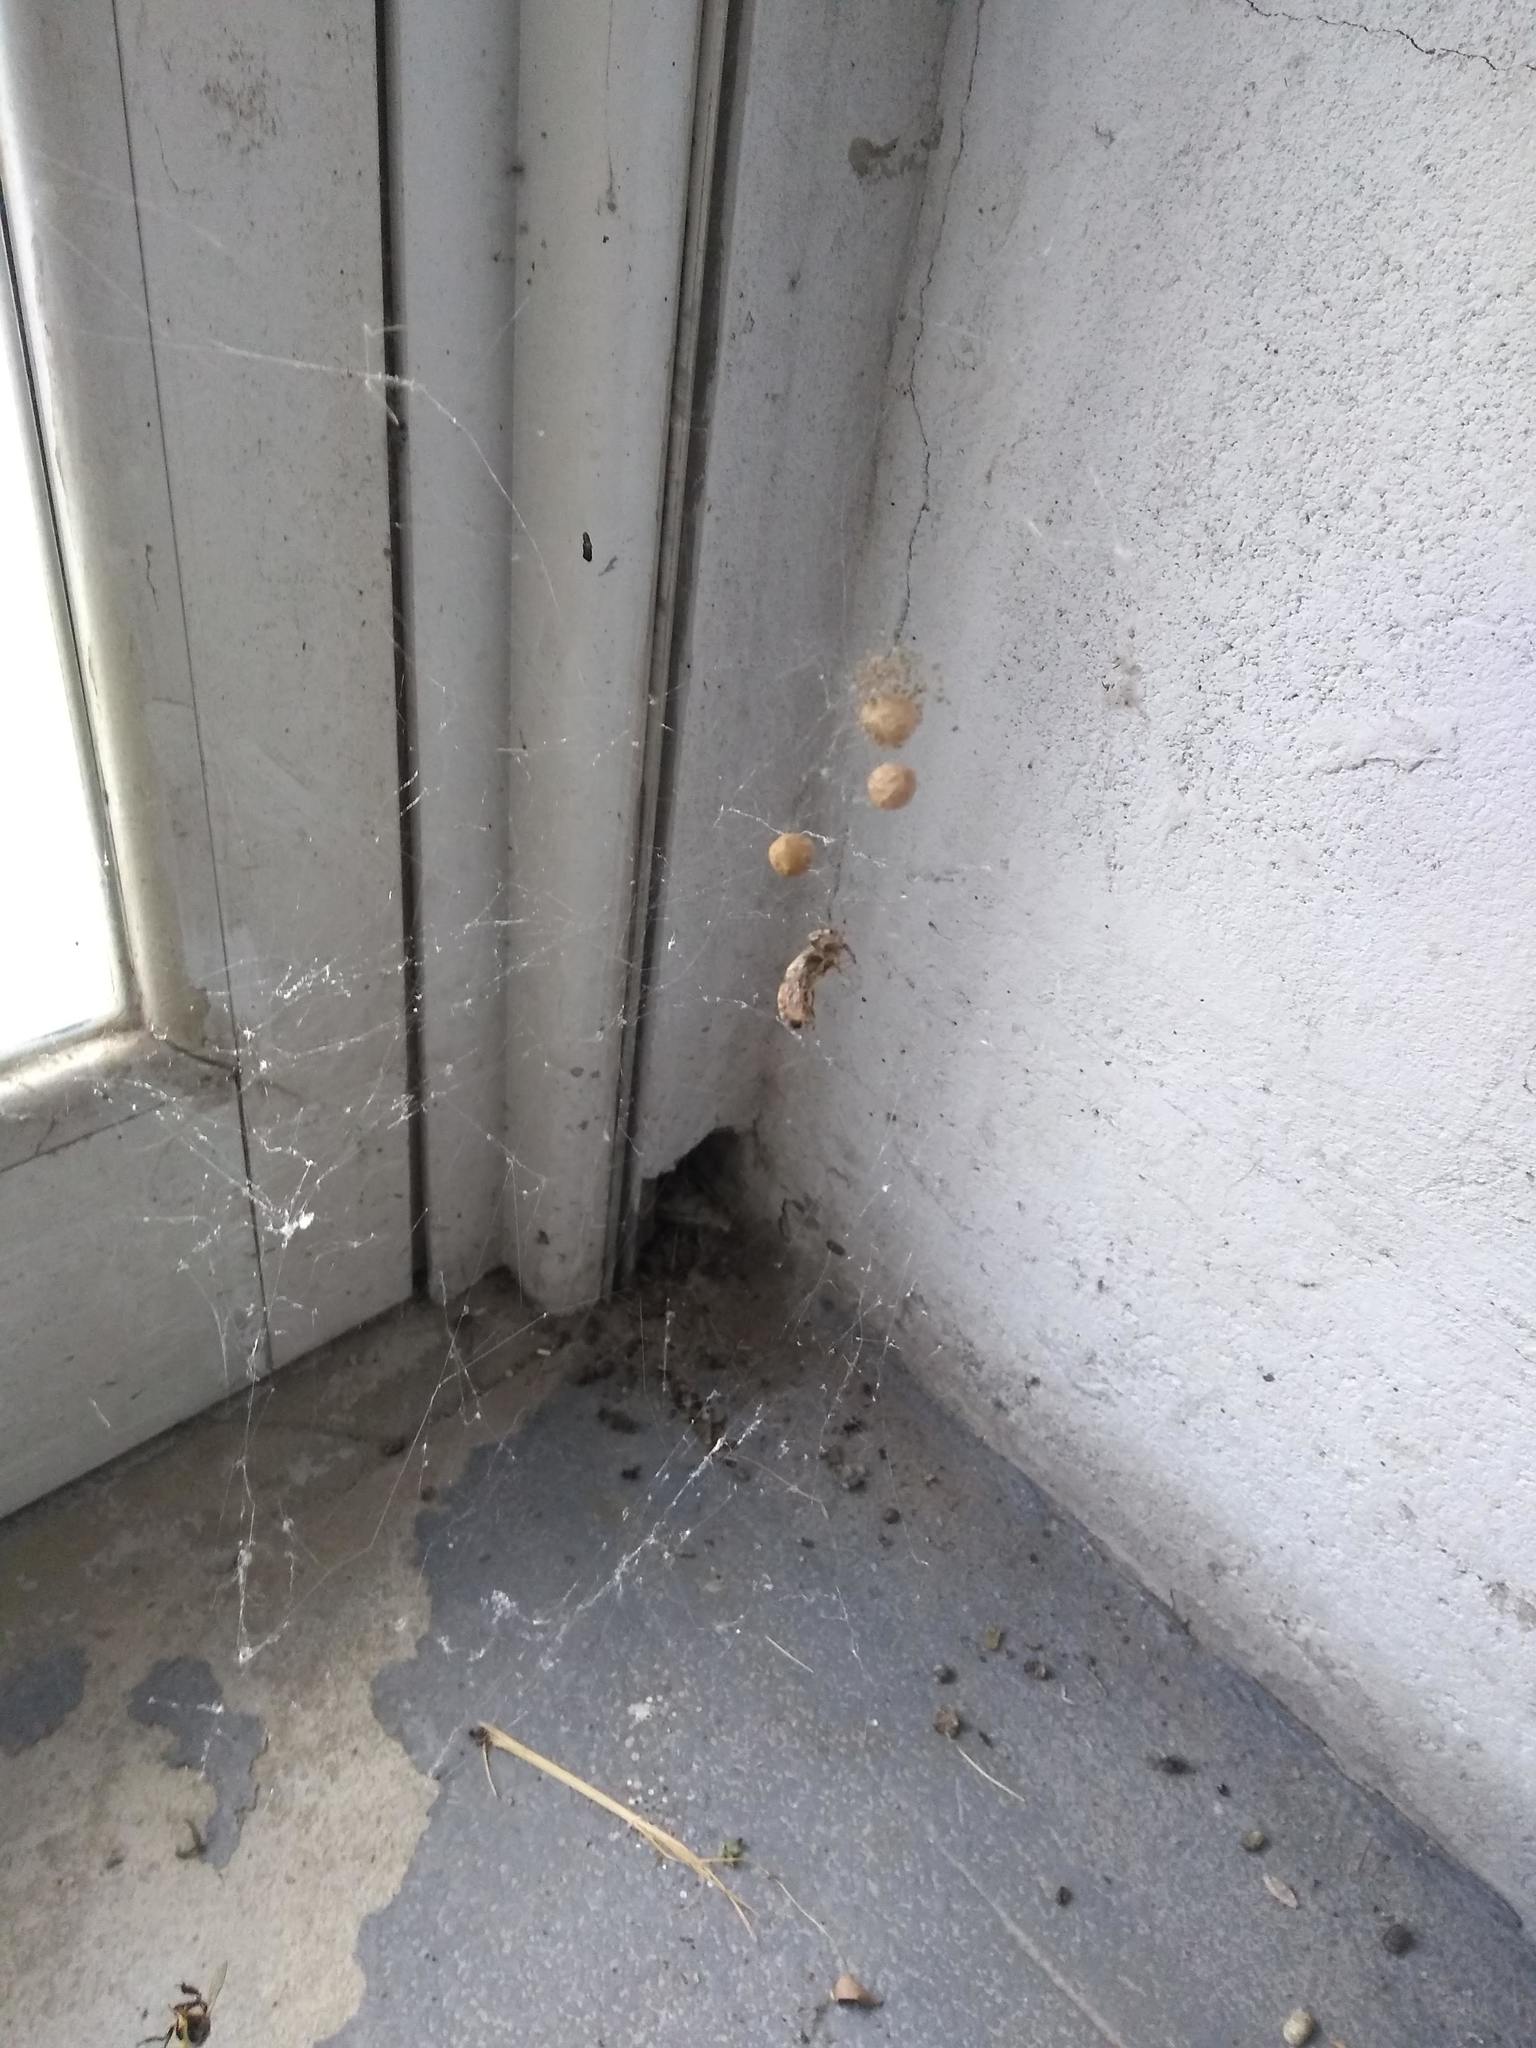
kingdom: Animalia
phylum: Arthropoda
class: Arachnida
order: Araneae
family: Theridiidae
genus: Parasteatoda
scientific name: Parasteatoda tepidariorum
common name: Common house spider
